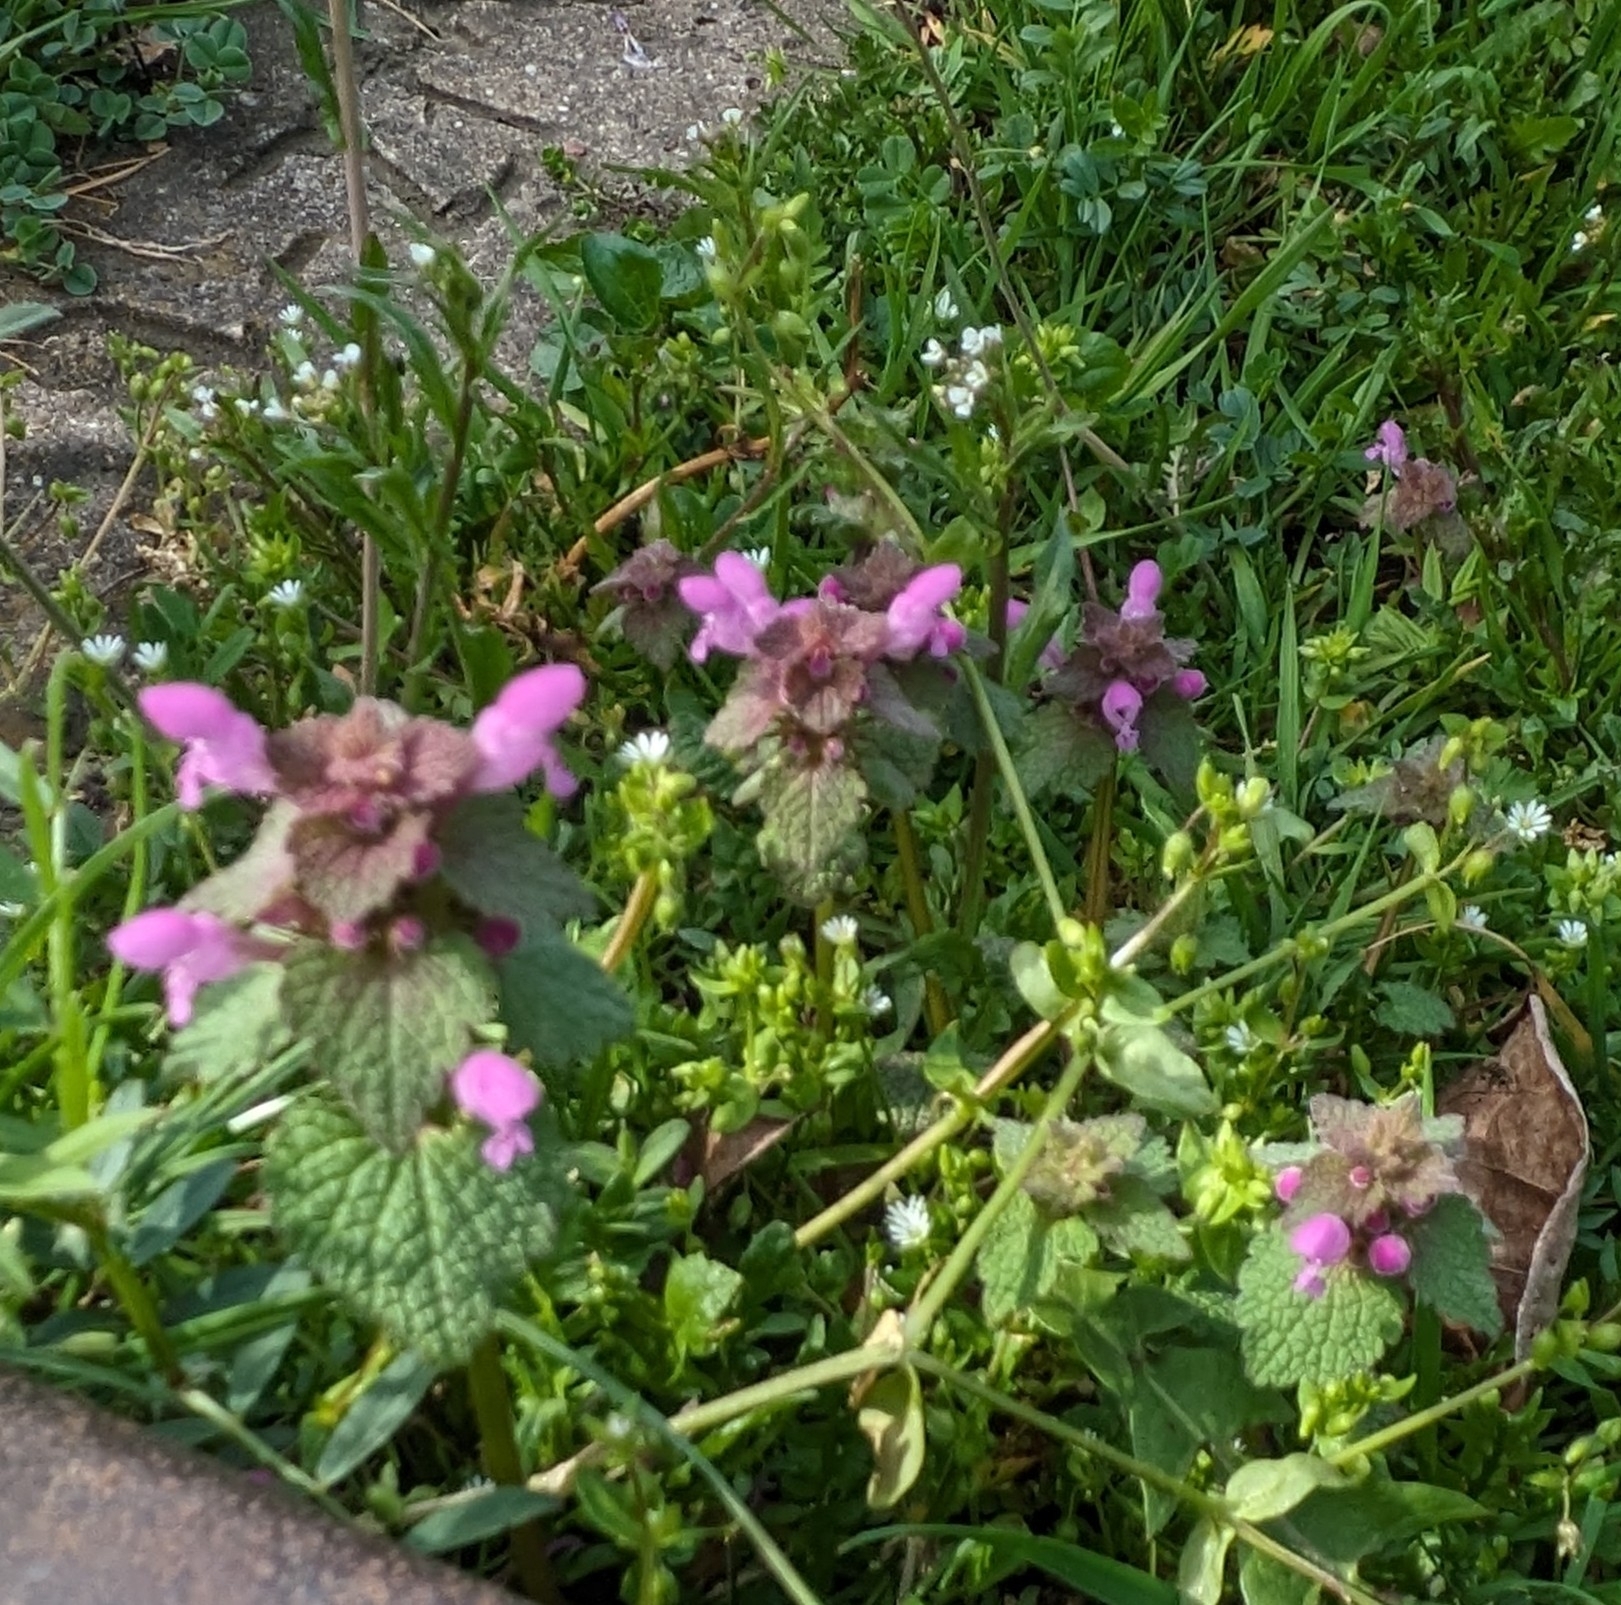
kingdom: Plantae
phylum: Tracheophyta
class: Magnoliopsida
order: Lamiales
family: Lamiaceae
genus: Lamium
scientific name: Lamium purpureum
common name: Red dead-nettle
